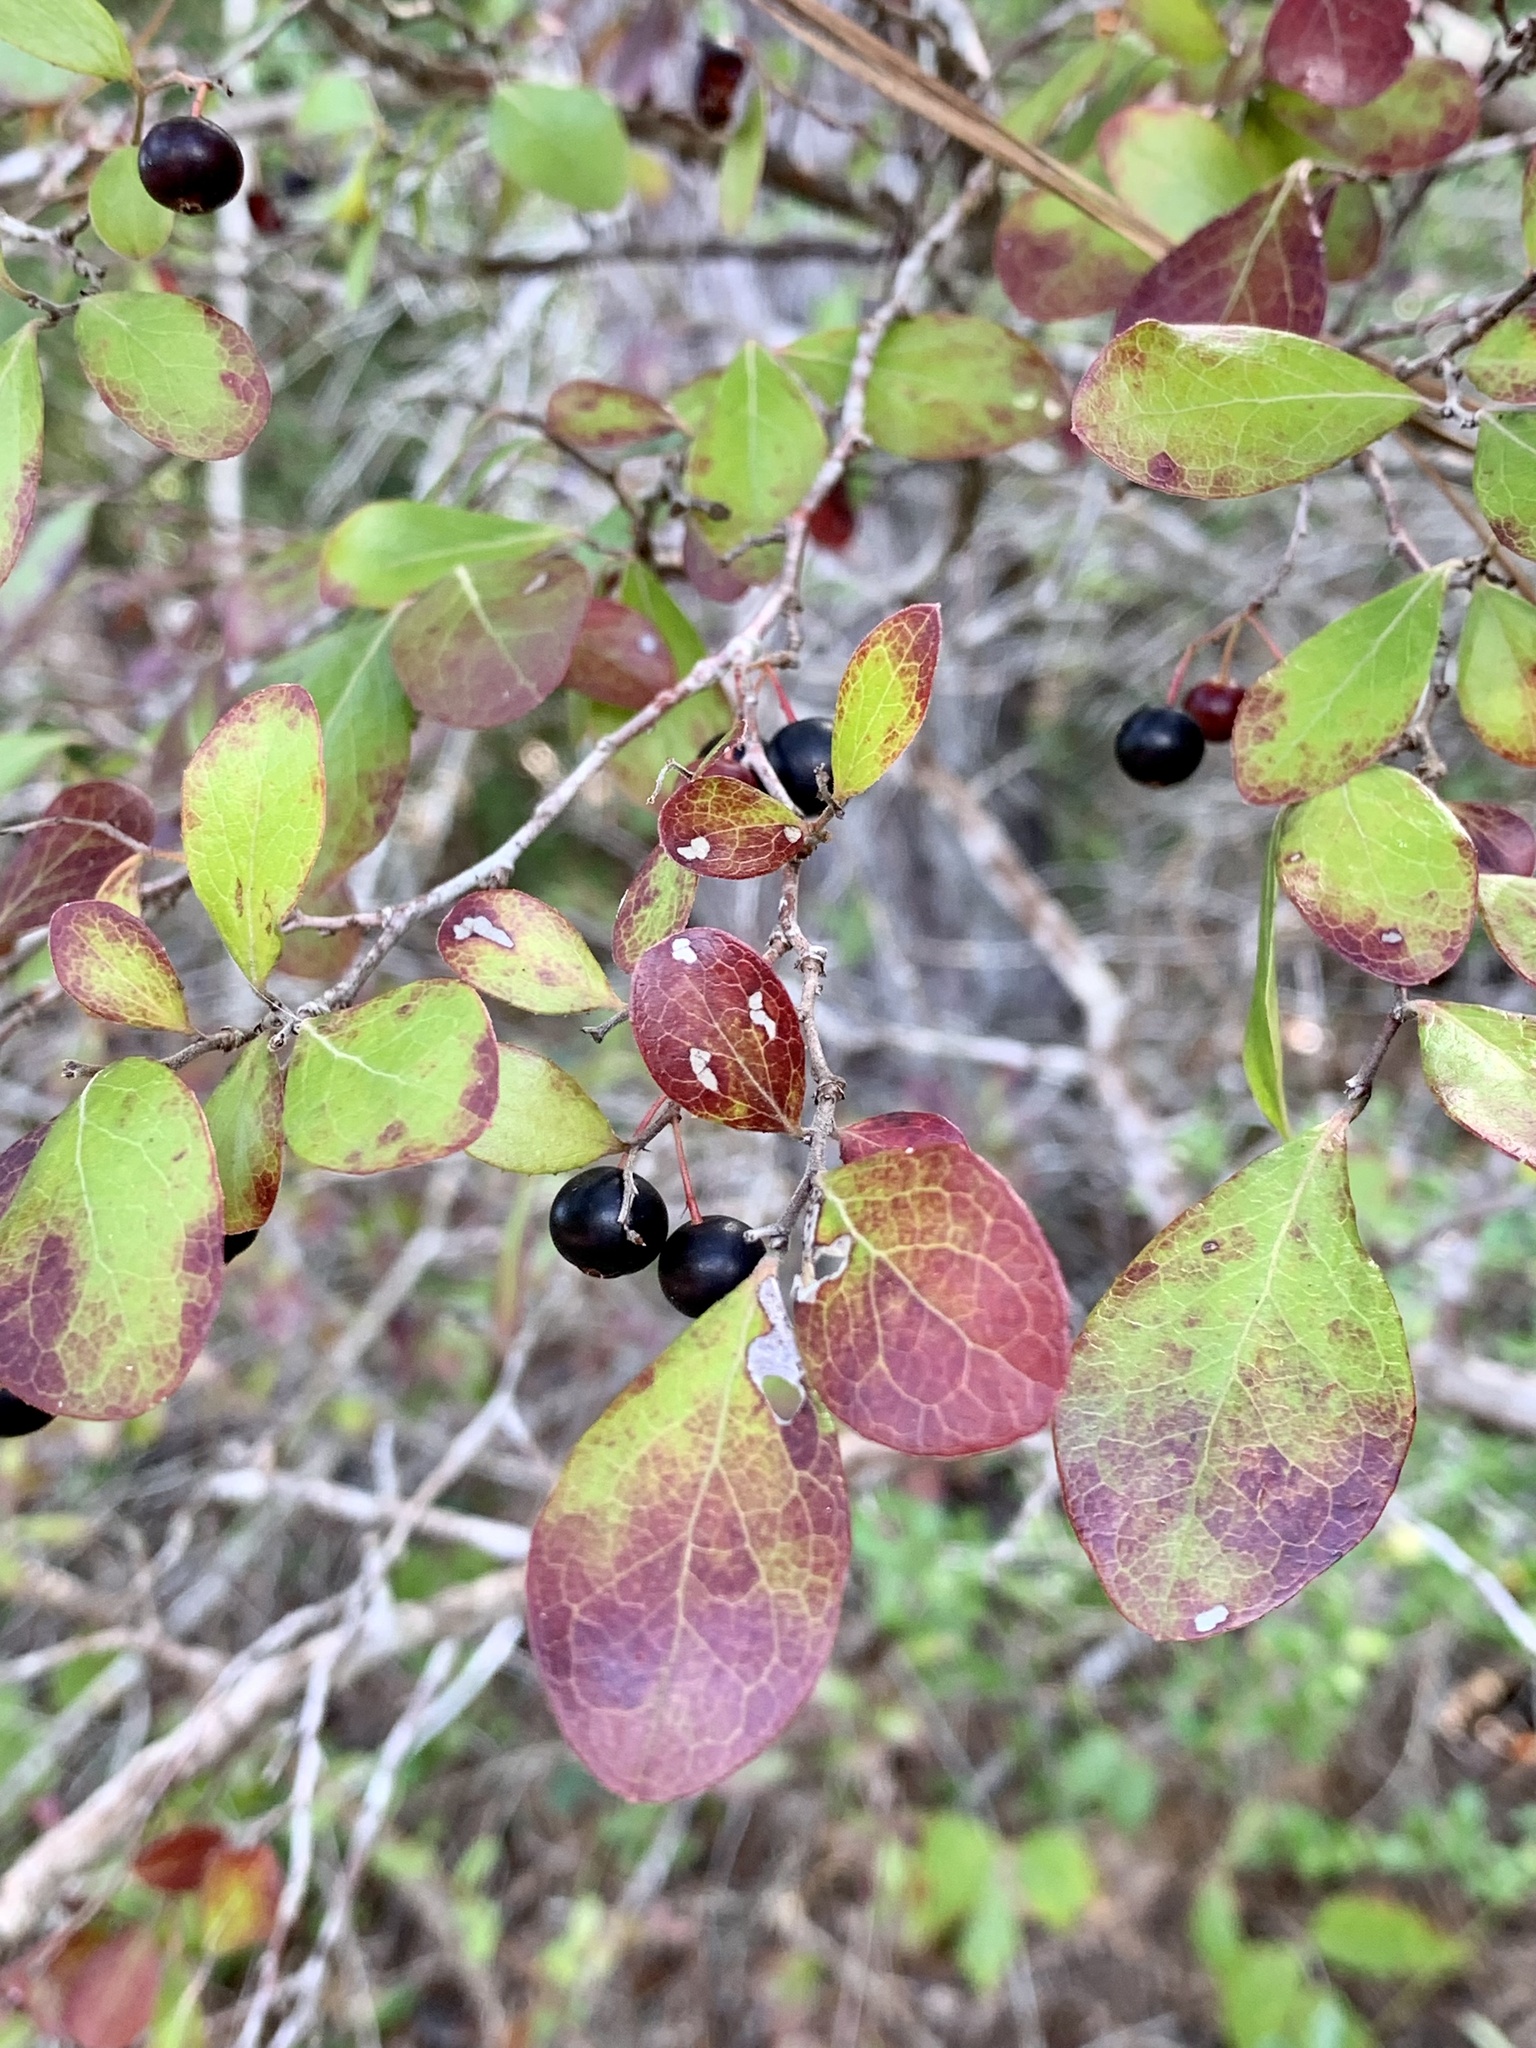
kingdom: Plantae
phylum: Tracheophyta
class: Magnoliopsida
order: Ericales
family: Ericaceae
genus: Vaccinium
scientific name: Vaccinium arboreum
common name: Farkleberry
